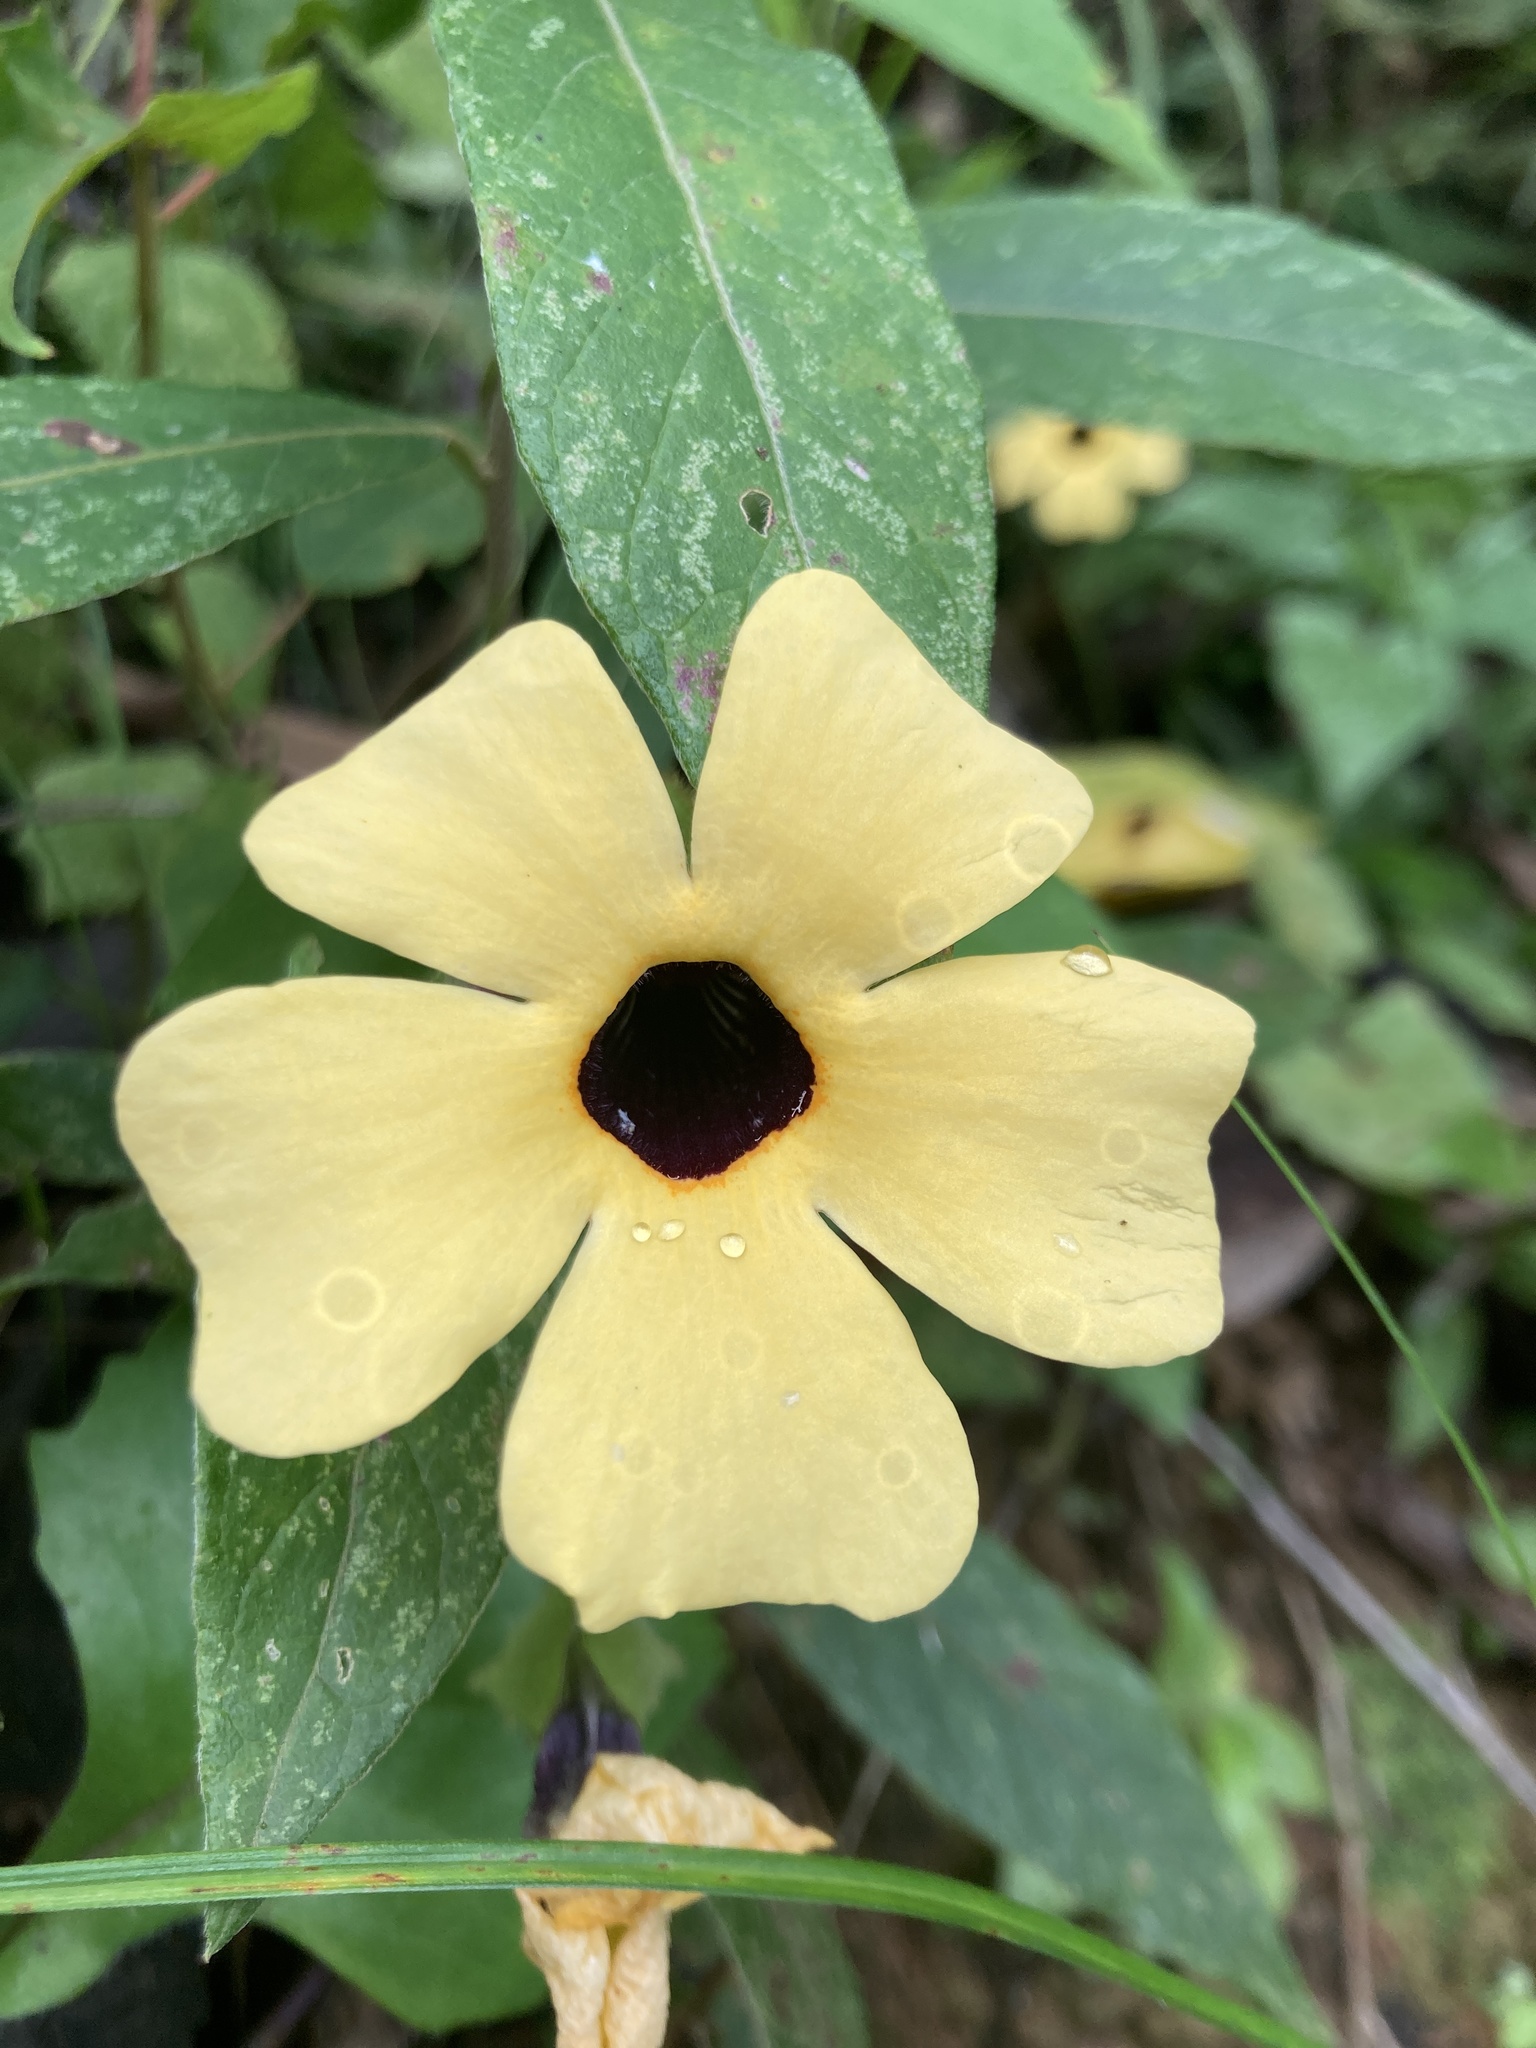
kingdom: Plantae
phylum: Tracheophyta
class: Magnoliopsida
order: Lamiales
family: Acanthaceae
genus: Thunbergia
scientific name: Thunbergia alata
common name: Blackeyed susan vine
